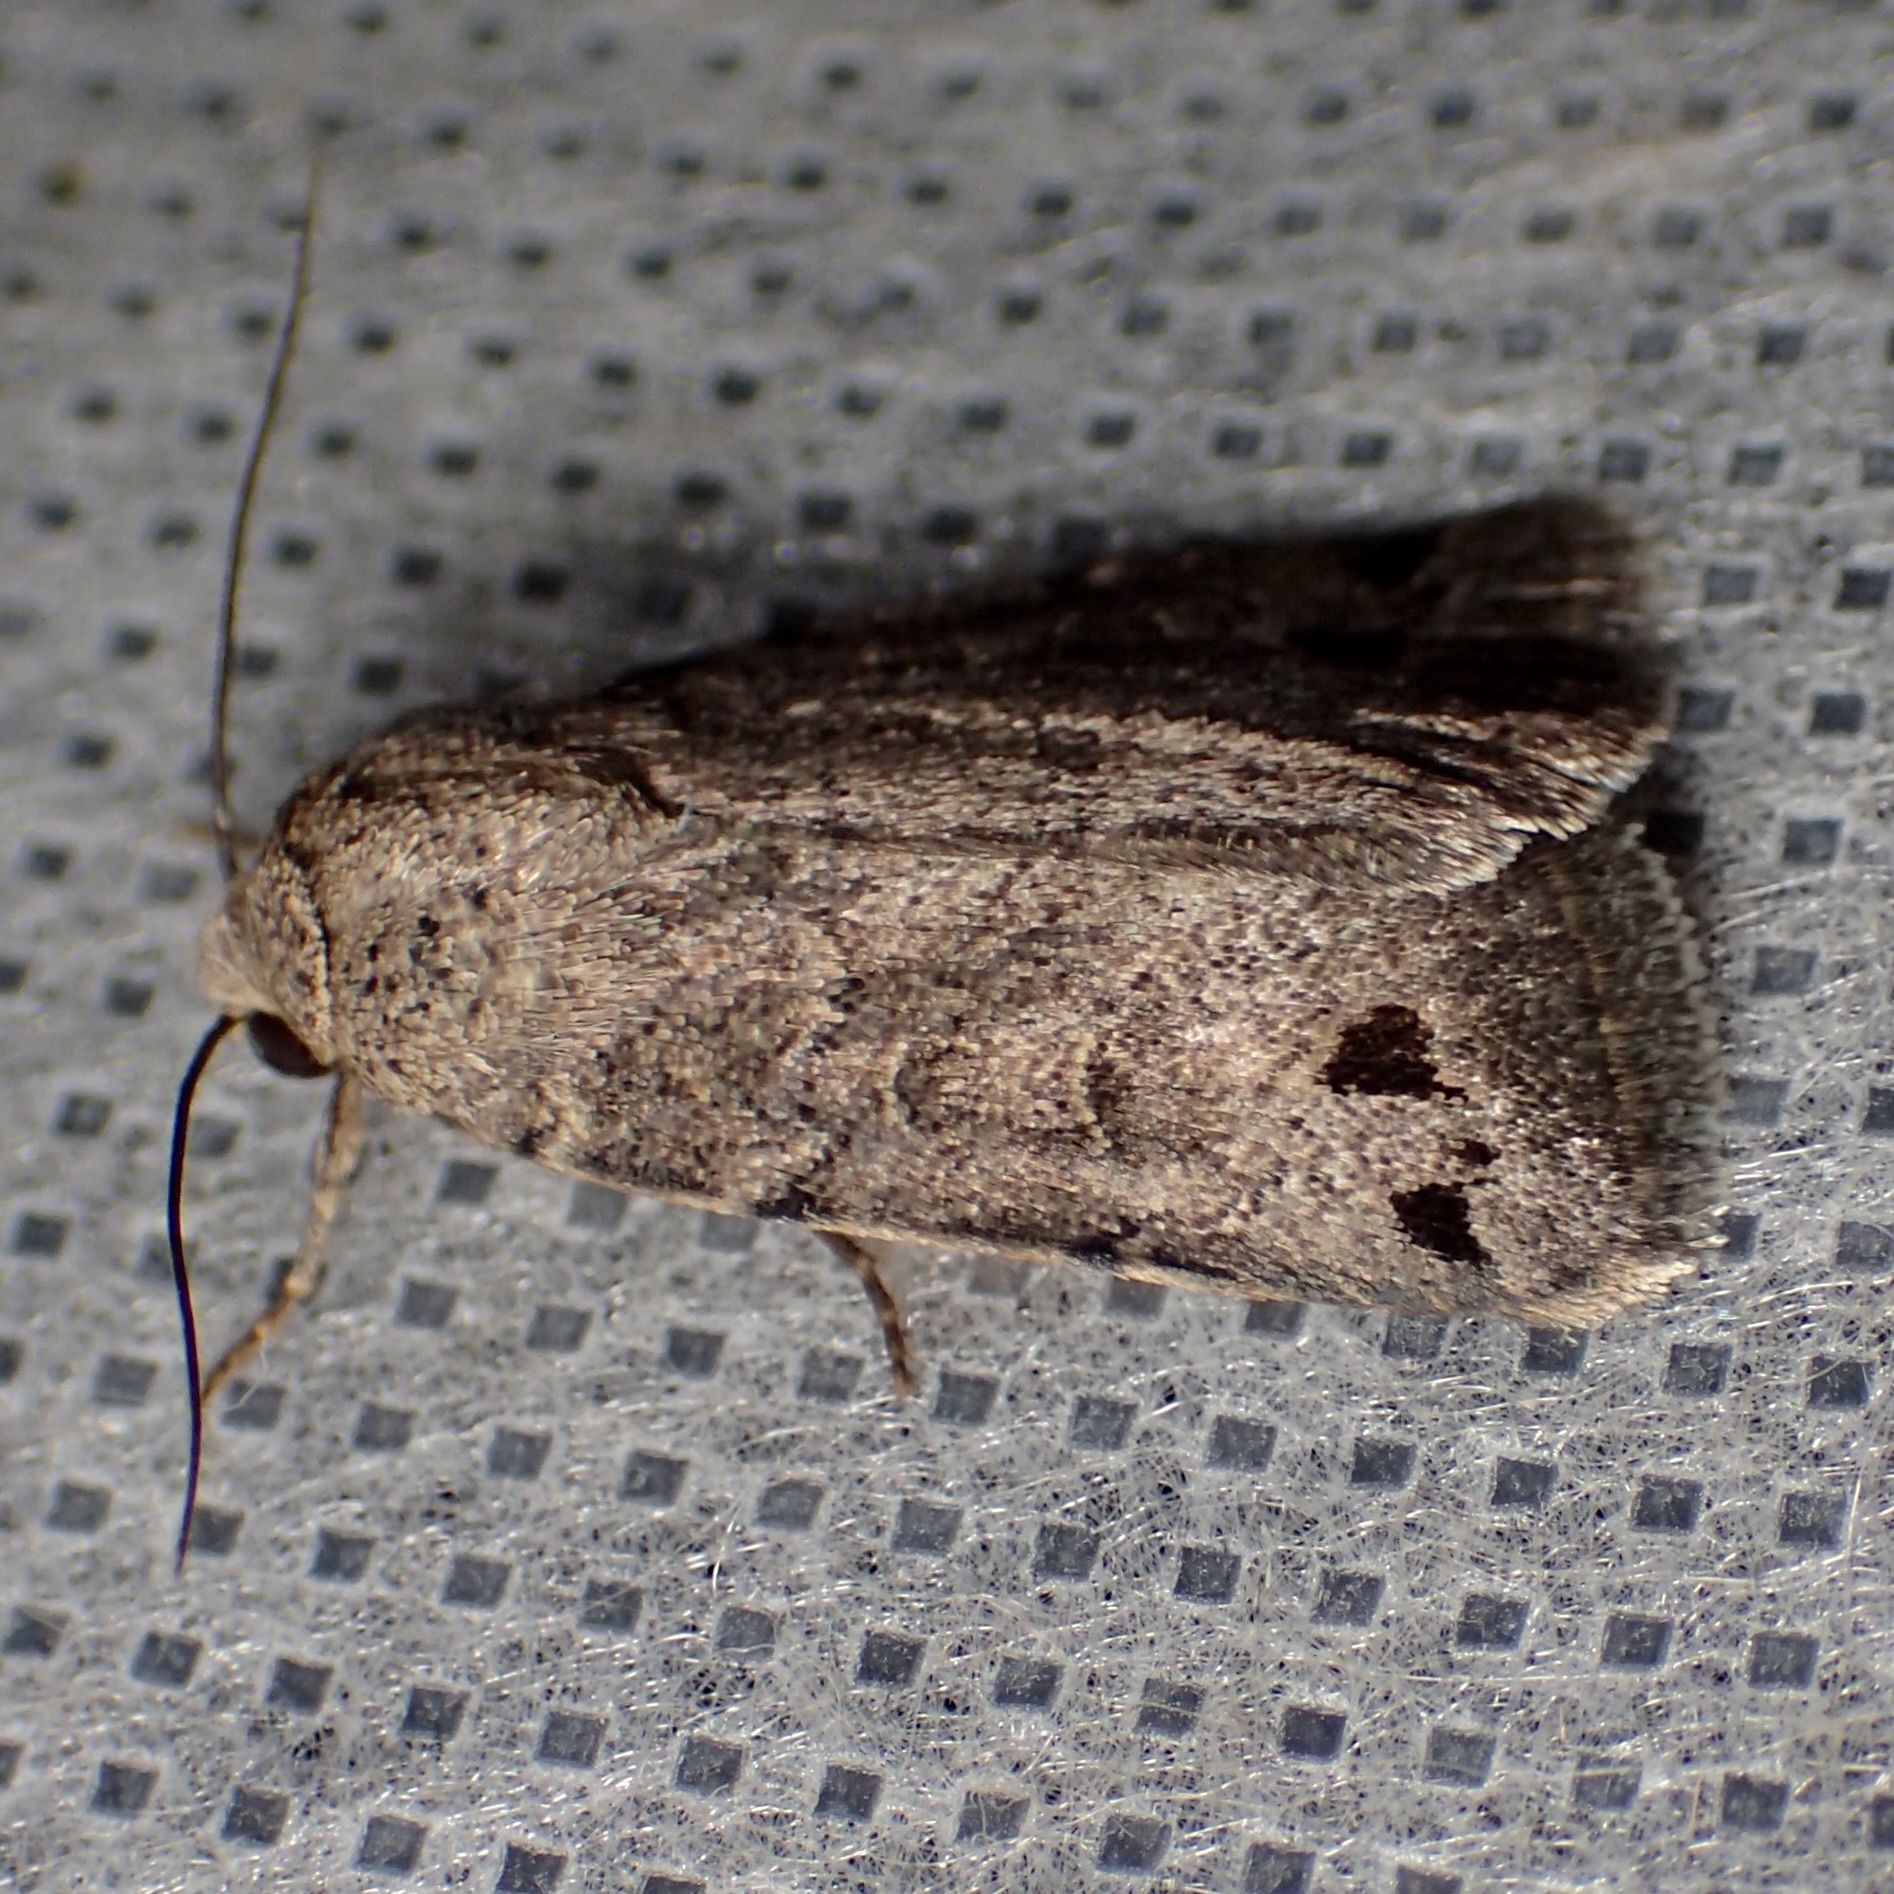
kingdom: Animalia
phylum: Arthropoda
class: Insecta
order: Lepidoptera
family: Noctuidae
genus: Anorthodes
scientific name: Anorthodes triquetra
